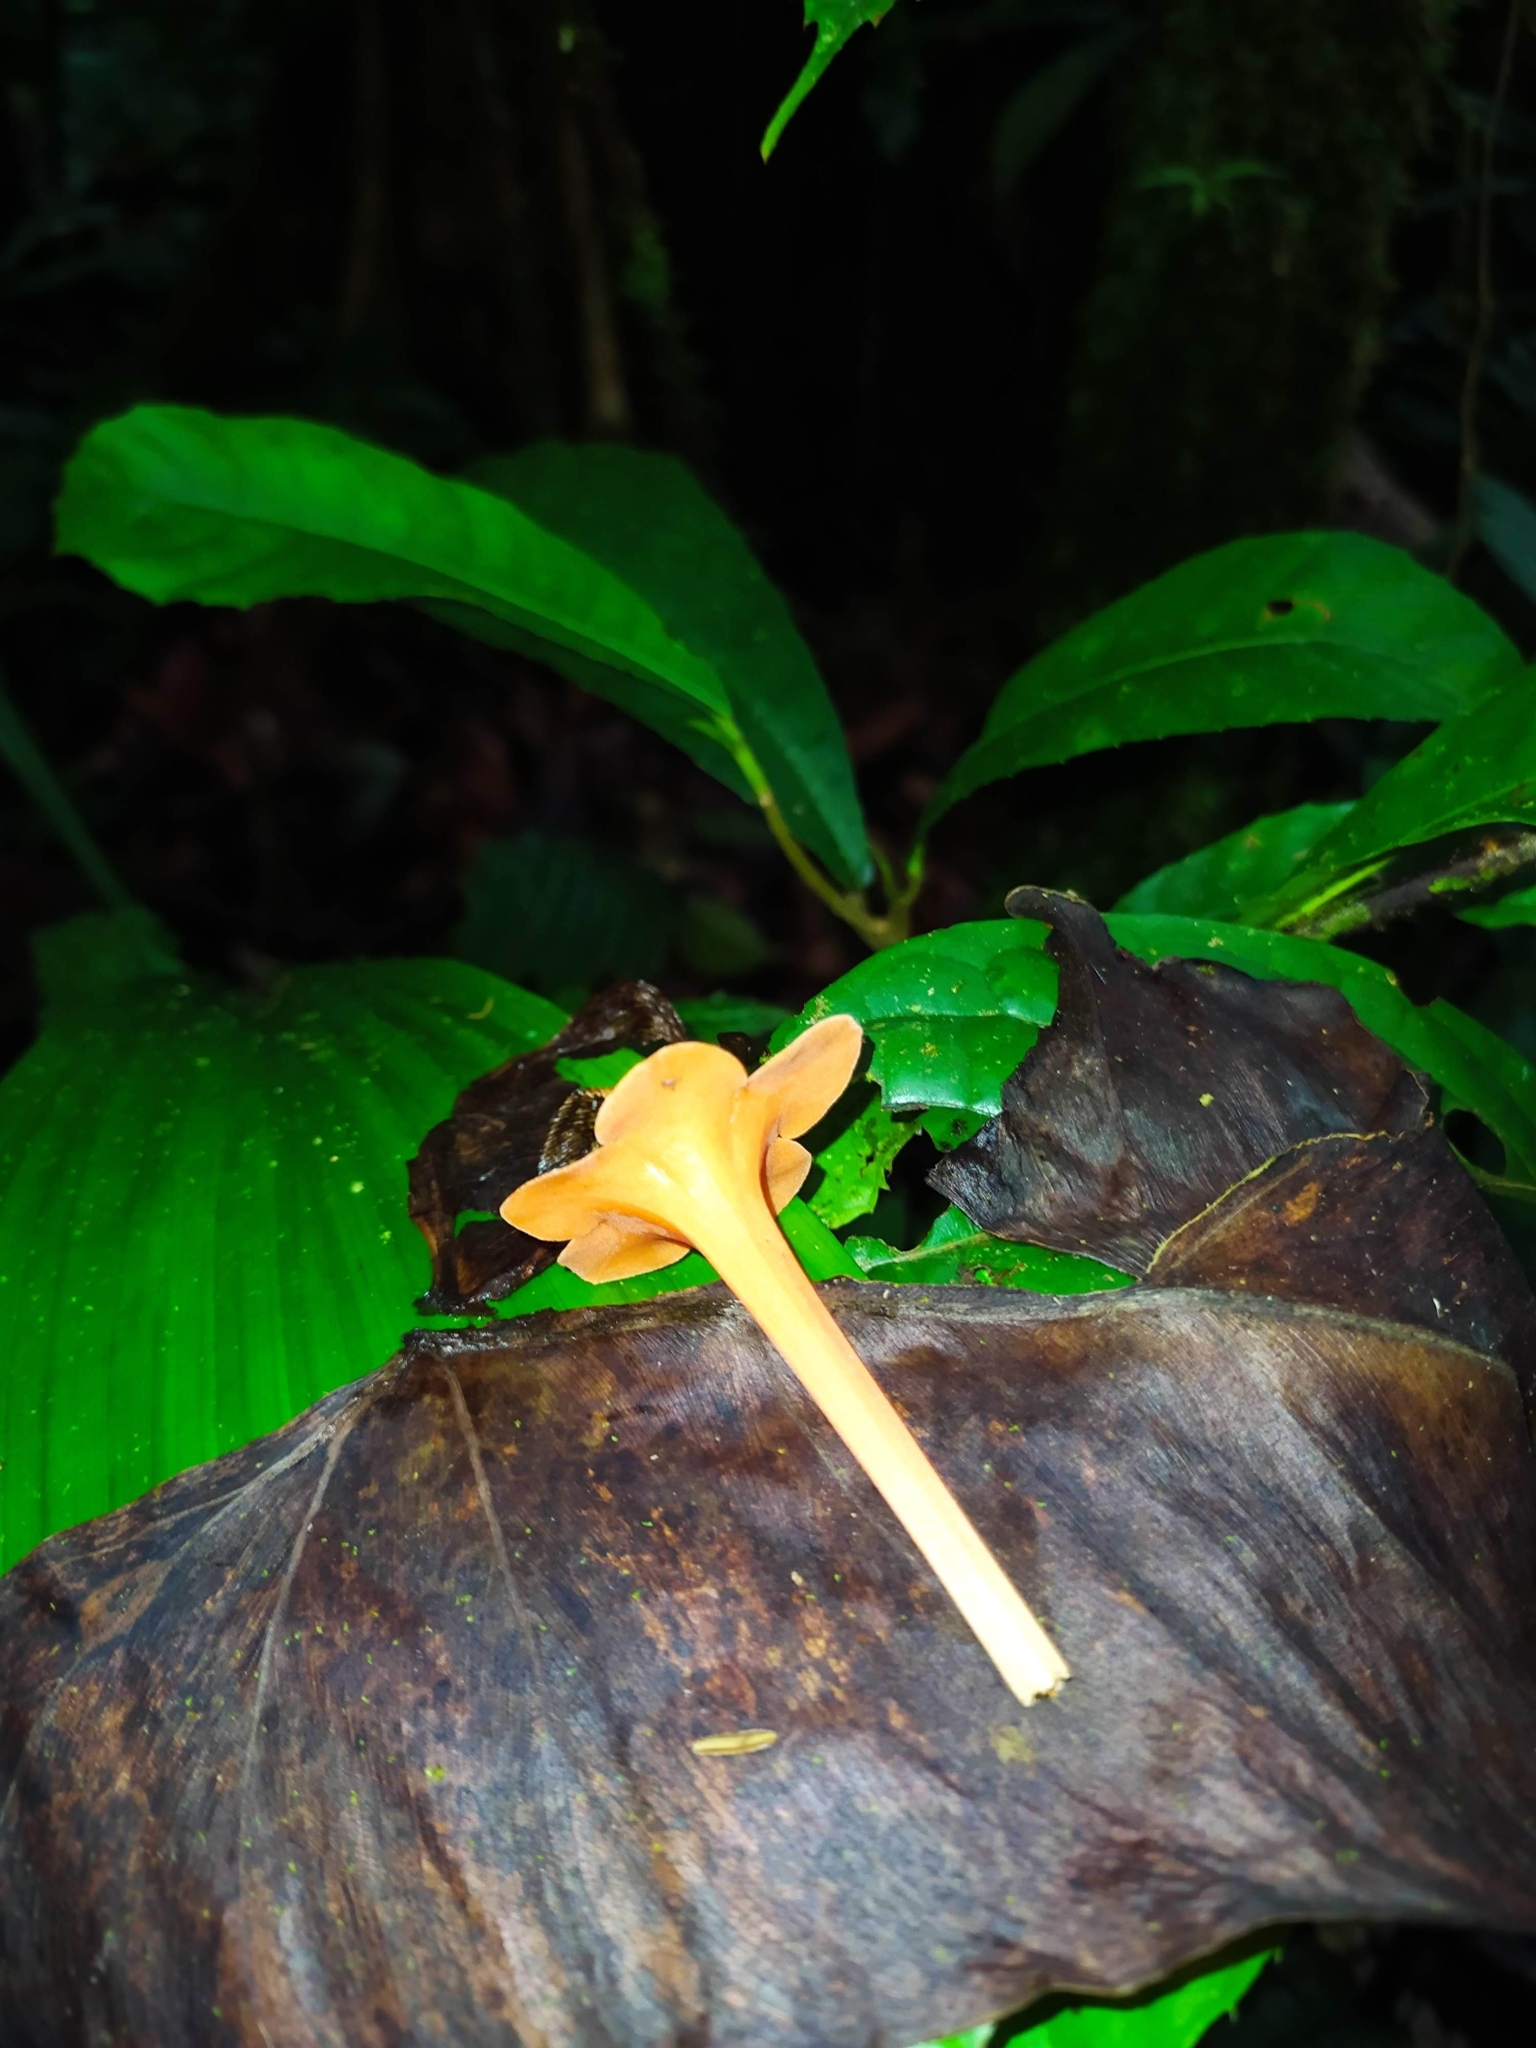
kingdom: Plantae
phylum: Tracheophyta
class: Magnoliopsida
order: Solanales
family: Solanaceae
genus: Markea
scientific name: Markea coccinea
